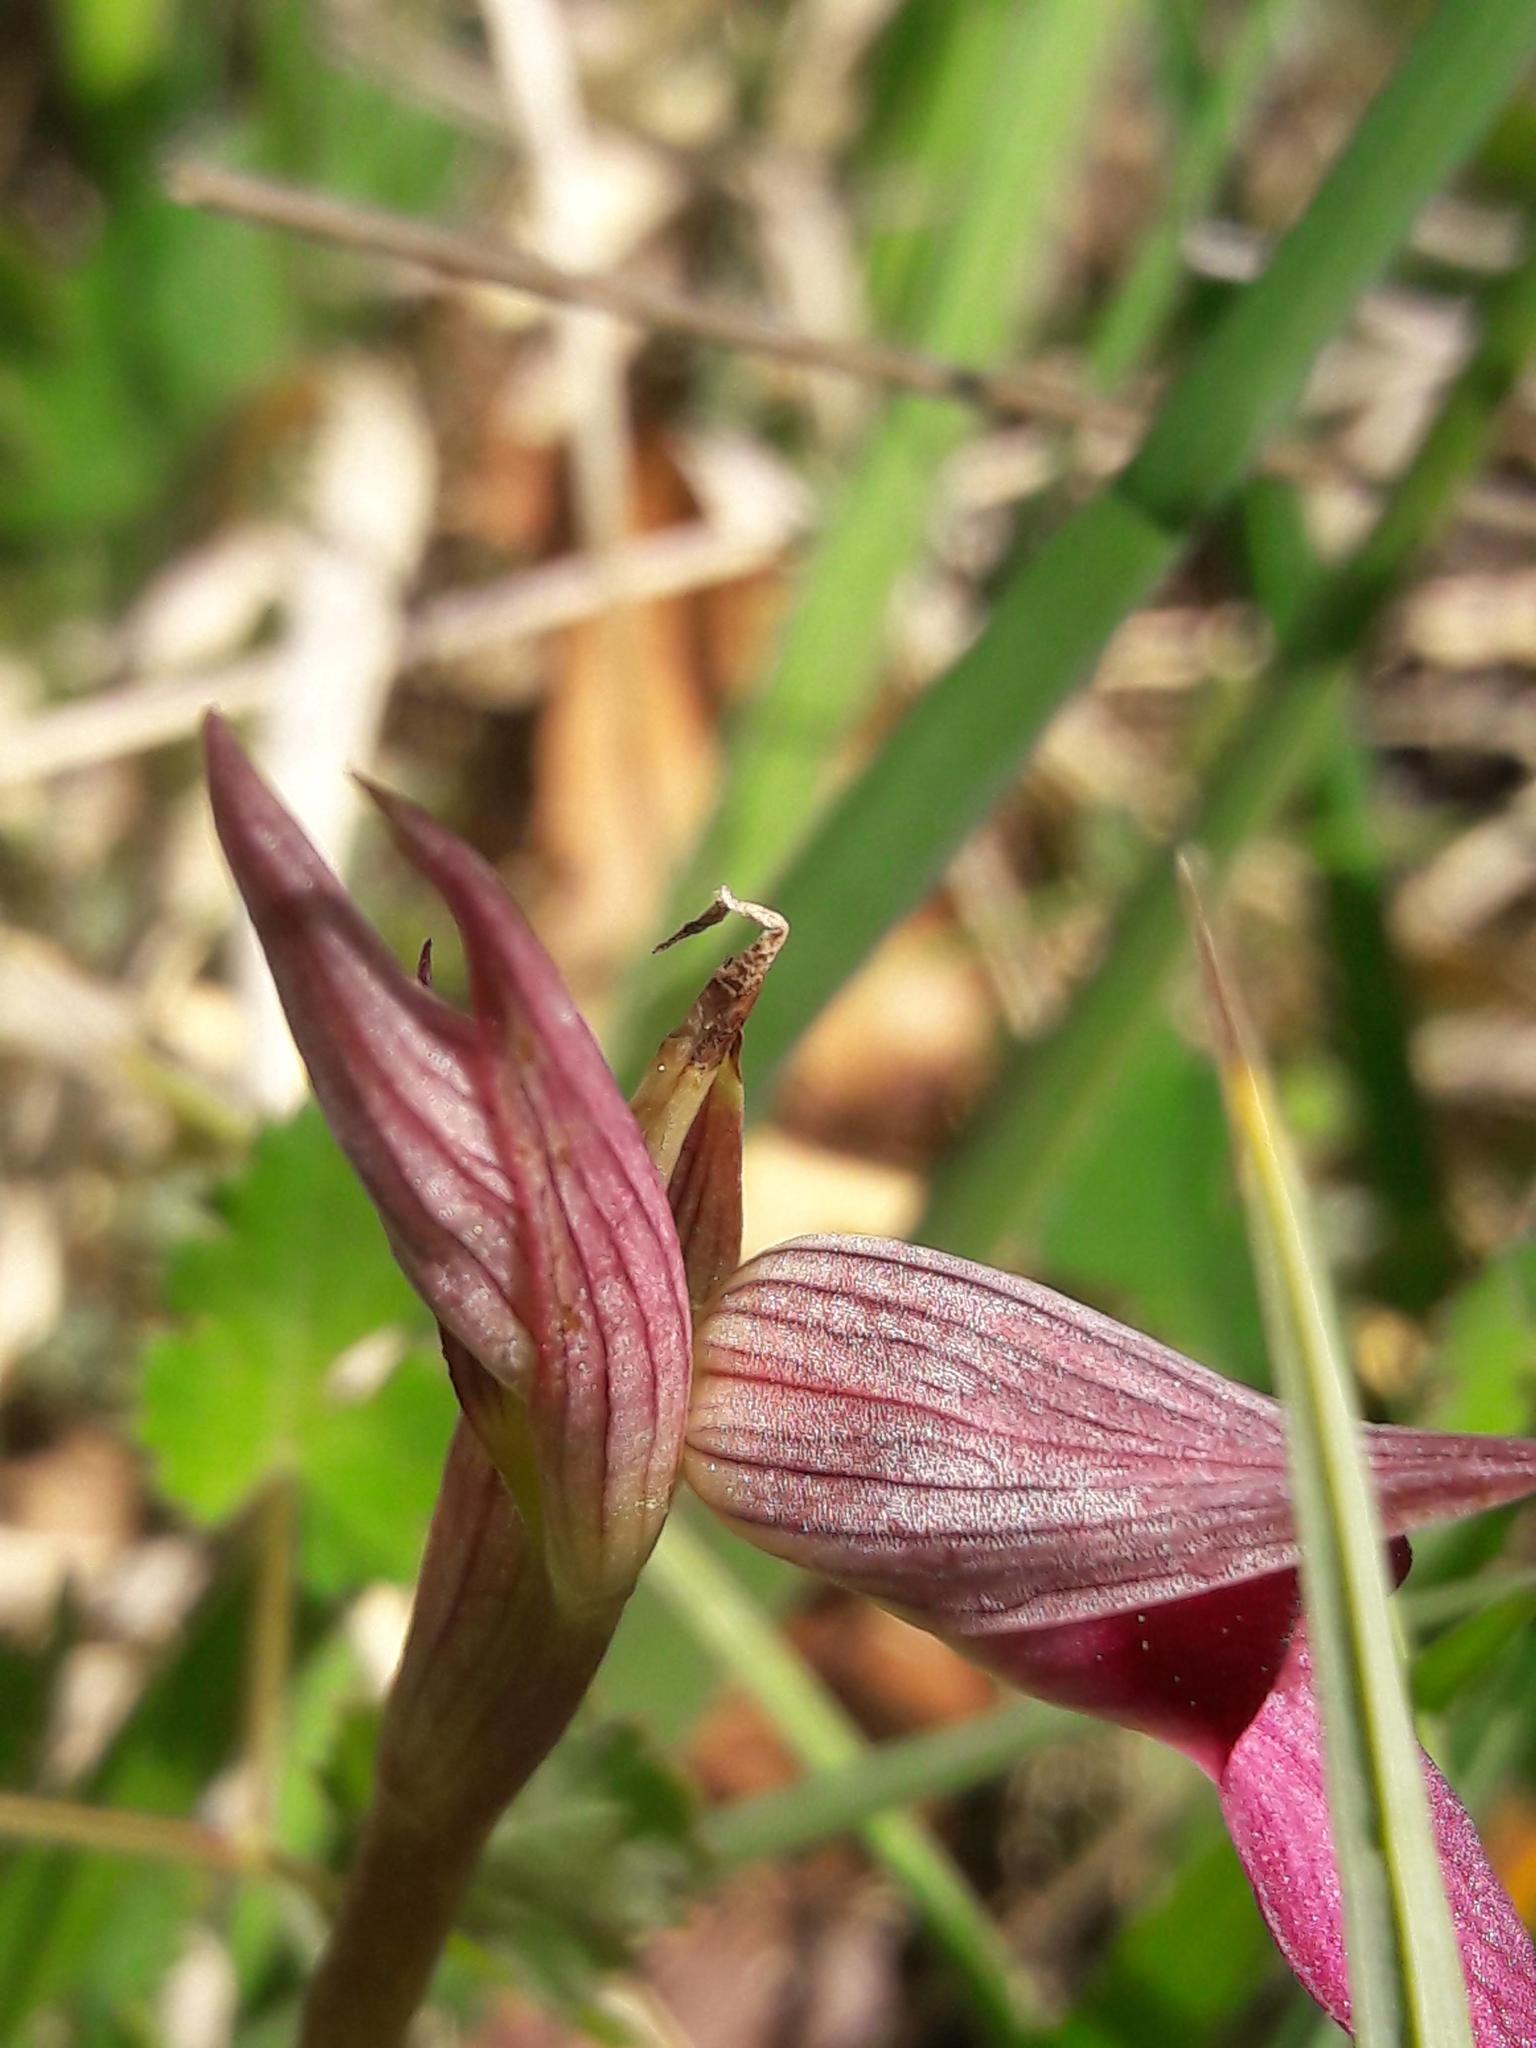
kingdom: Plantae
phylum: Tracheophyta
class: Liliopsida
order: Asparagales
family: Orchidaceae
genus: Serapias
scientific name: Serapias lingua
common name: Tongue-orchid
